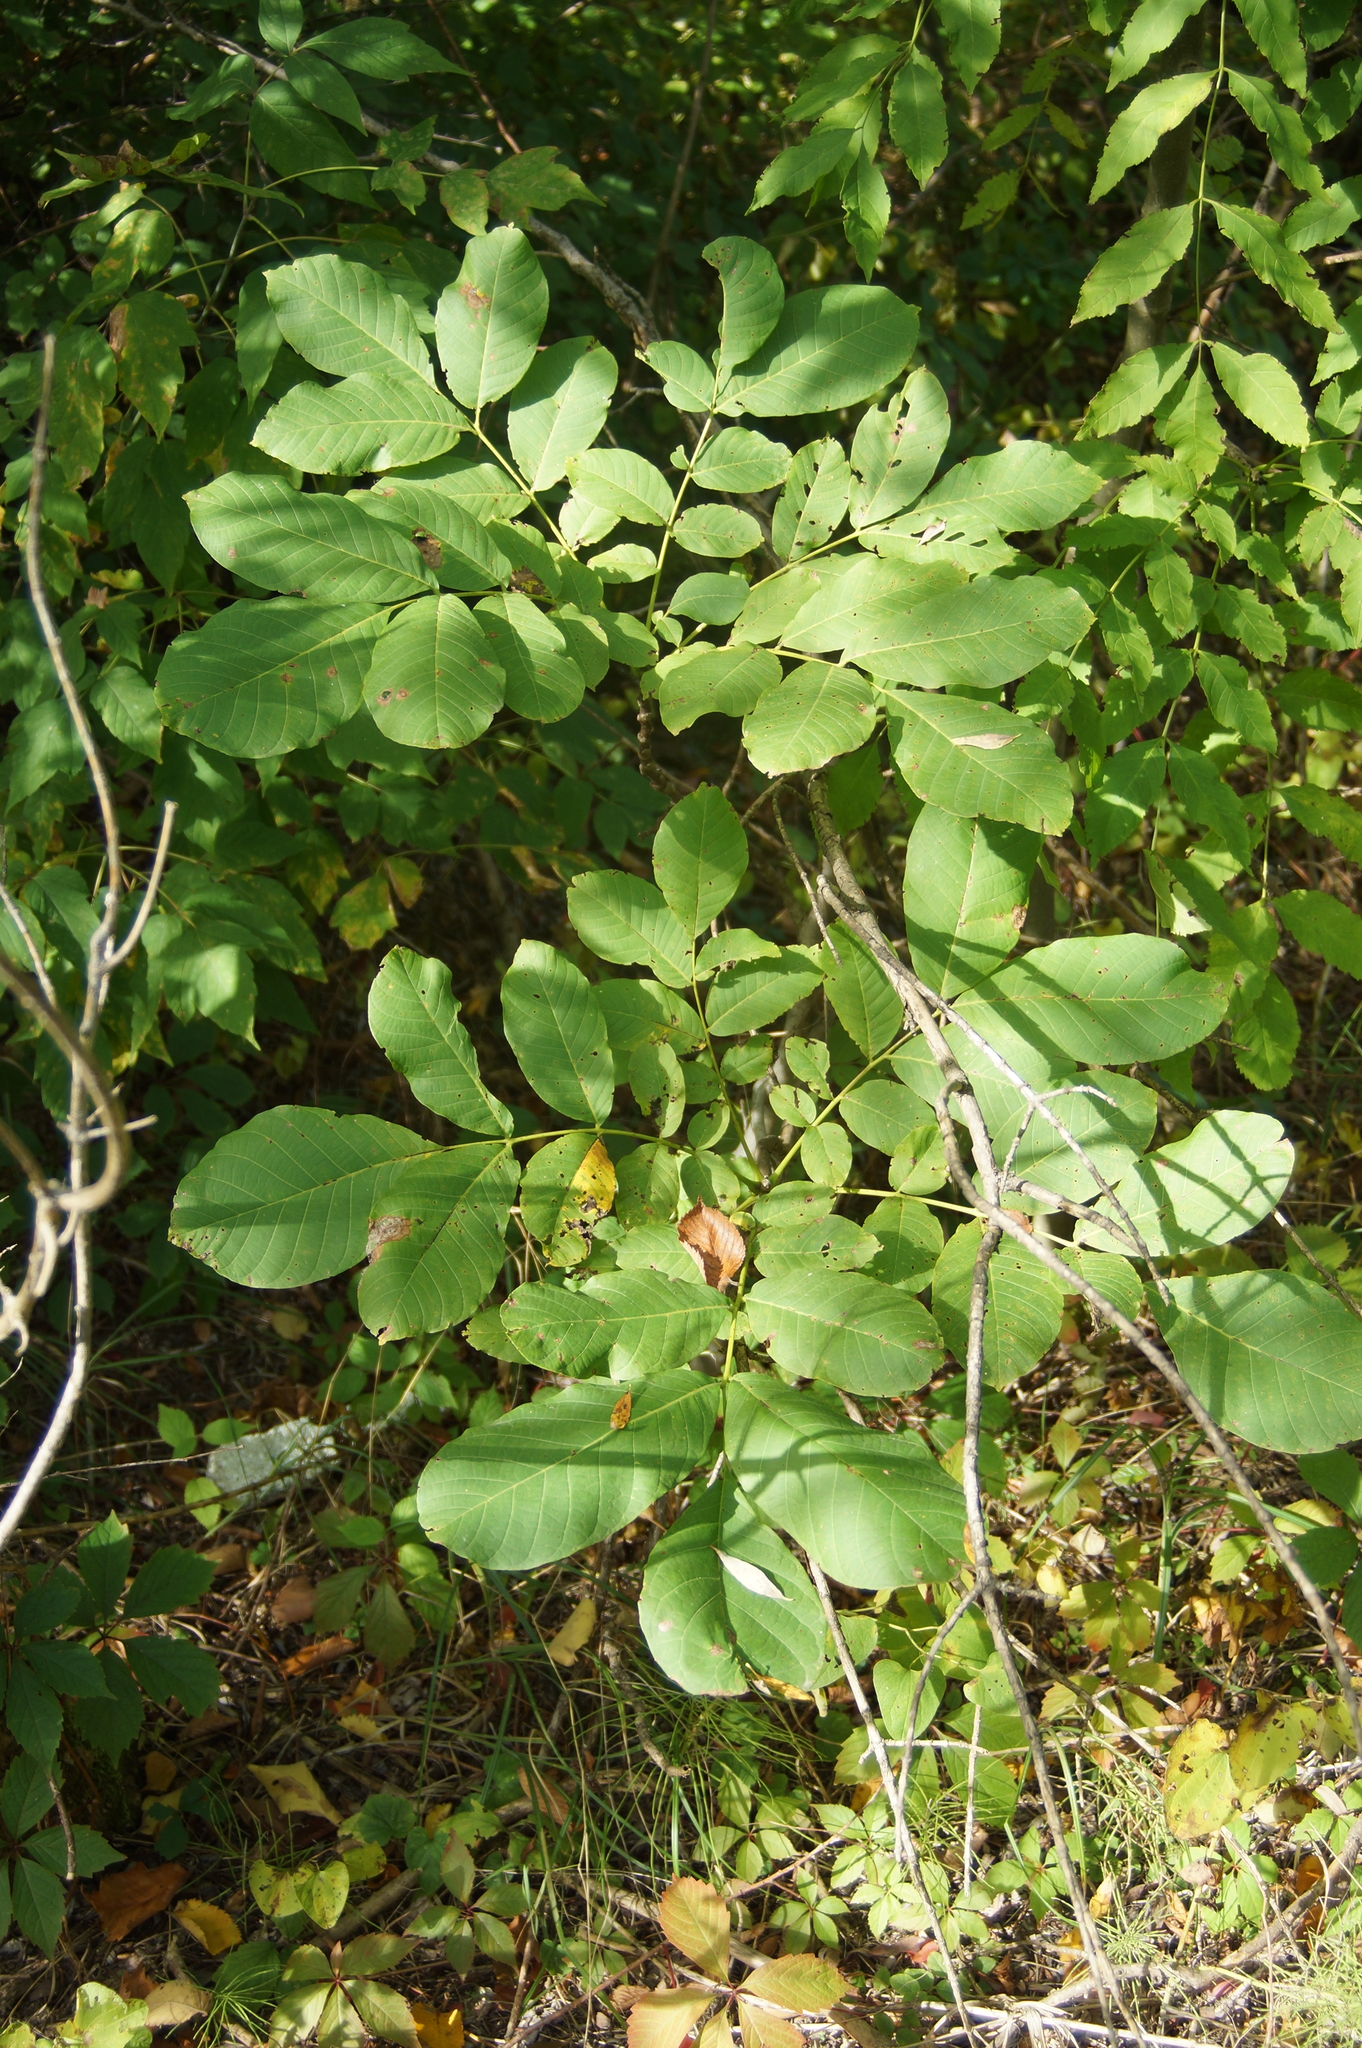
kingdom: Plantae
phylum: Tracheophyta
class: Magnoliopsida
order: Fagales
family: Juglandaceae
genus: Juglans
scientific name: Juglans regia
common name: Walnut
